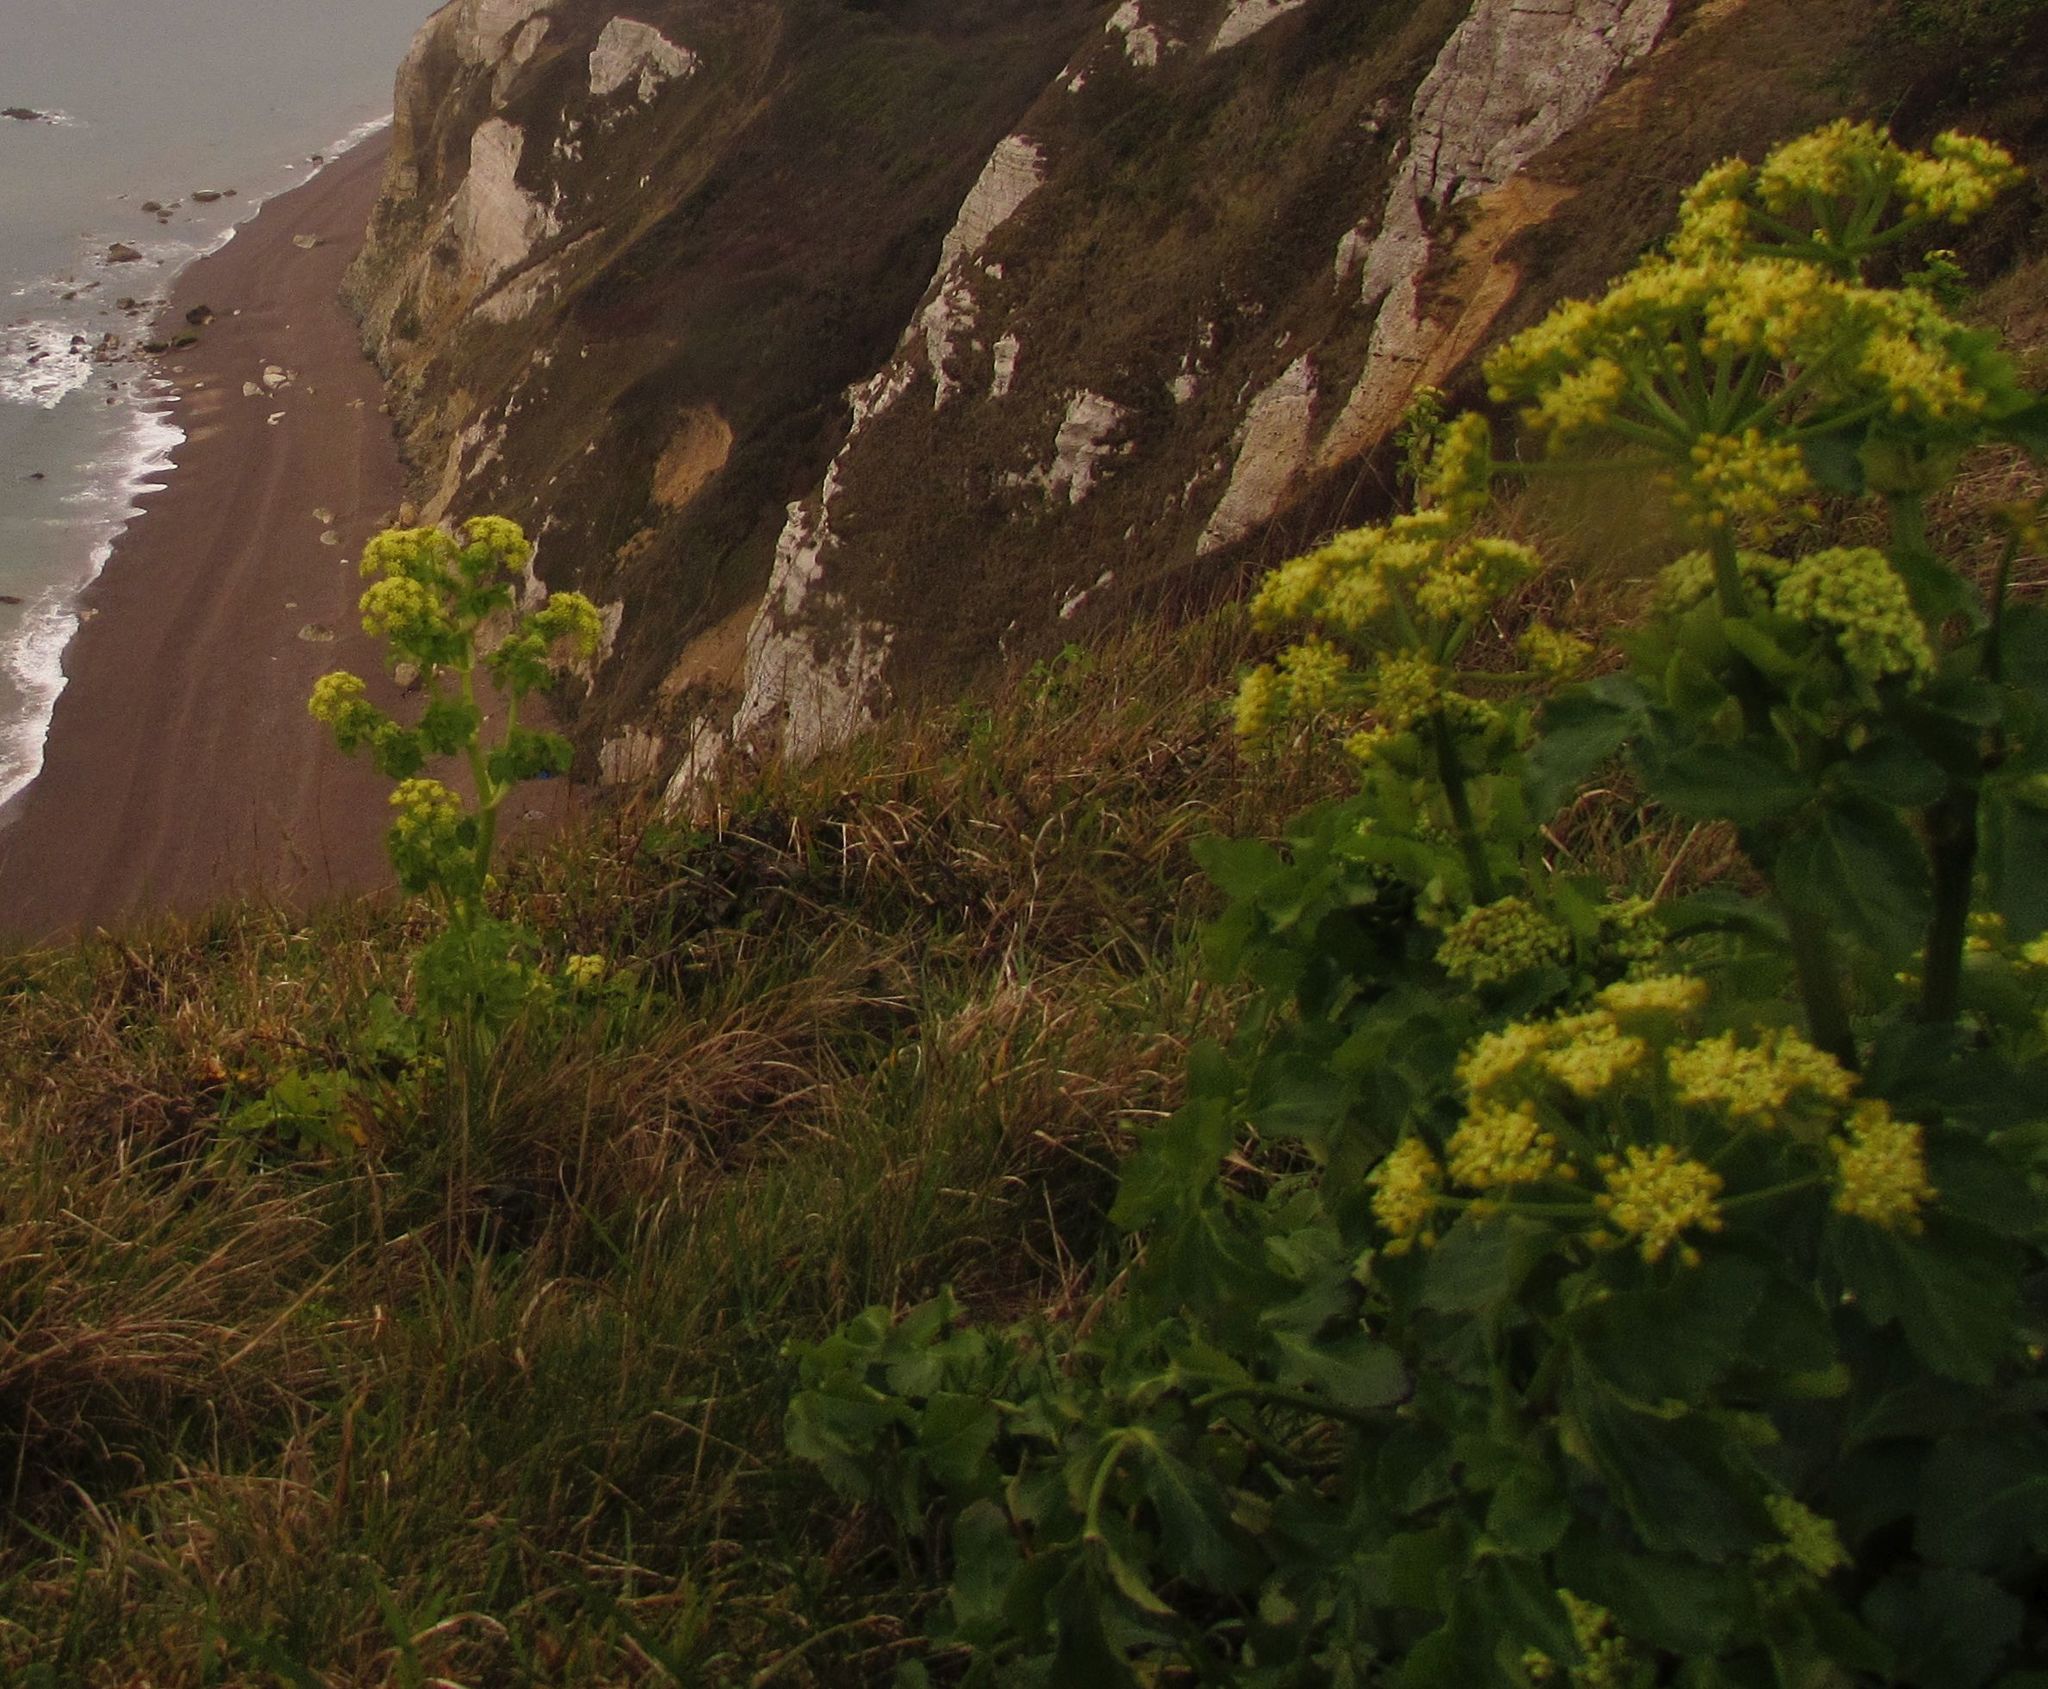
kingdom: Plantae
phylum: Tracheophyta
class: Magnoliopsida
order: Apiales
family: Apiaceae
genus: Smyrnium
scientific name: Smyrnium olusatrum
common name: Alexanders
